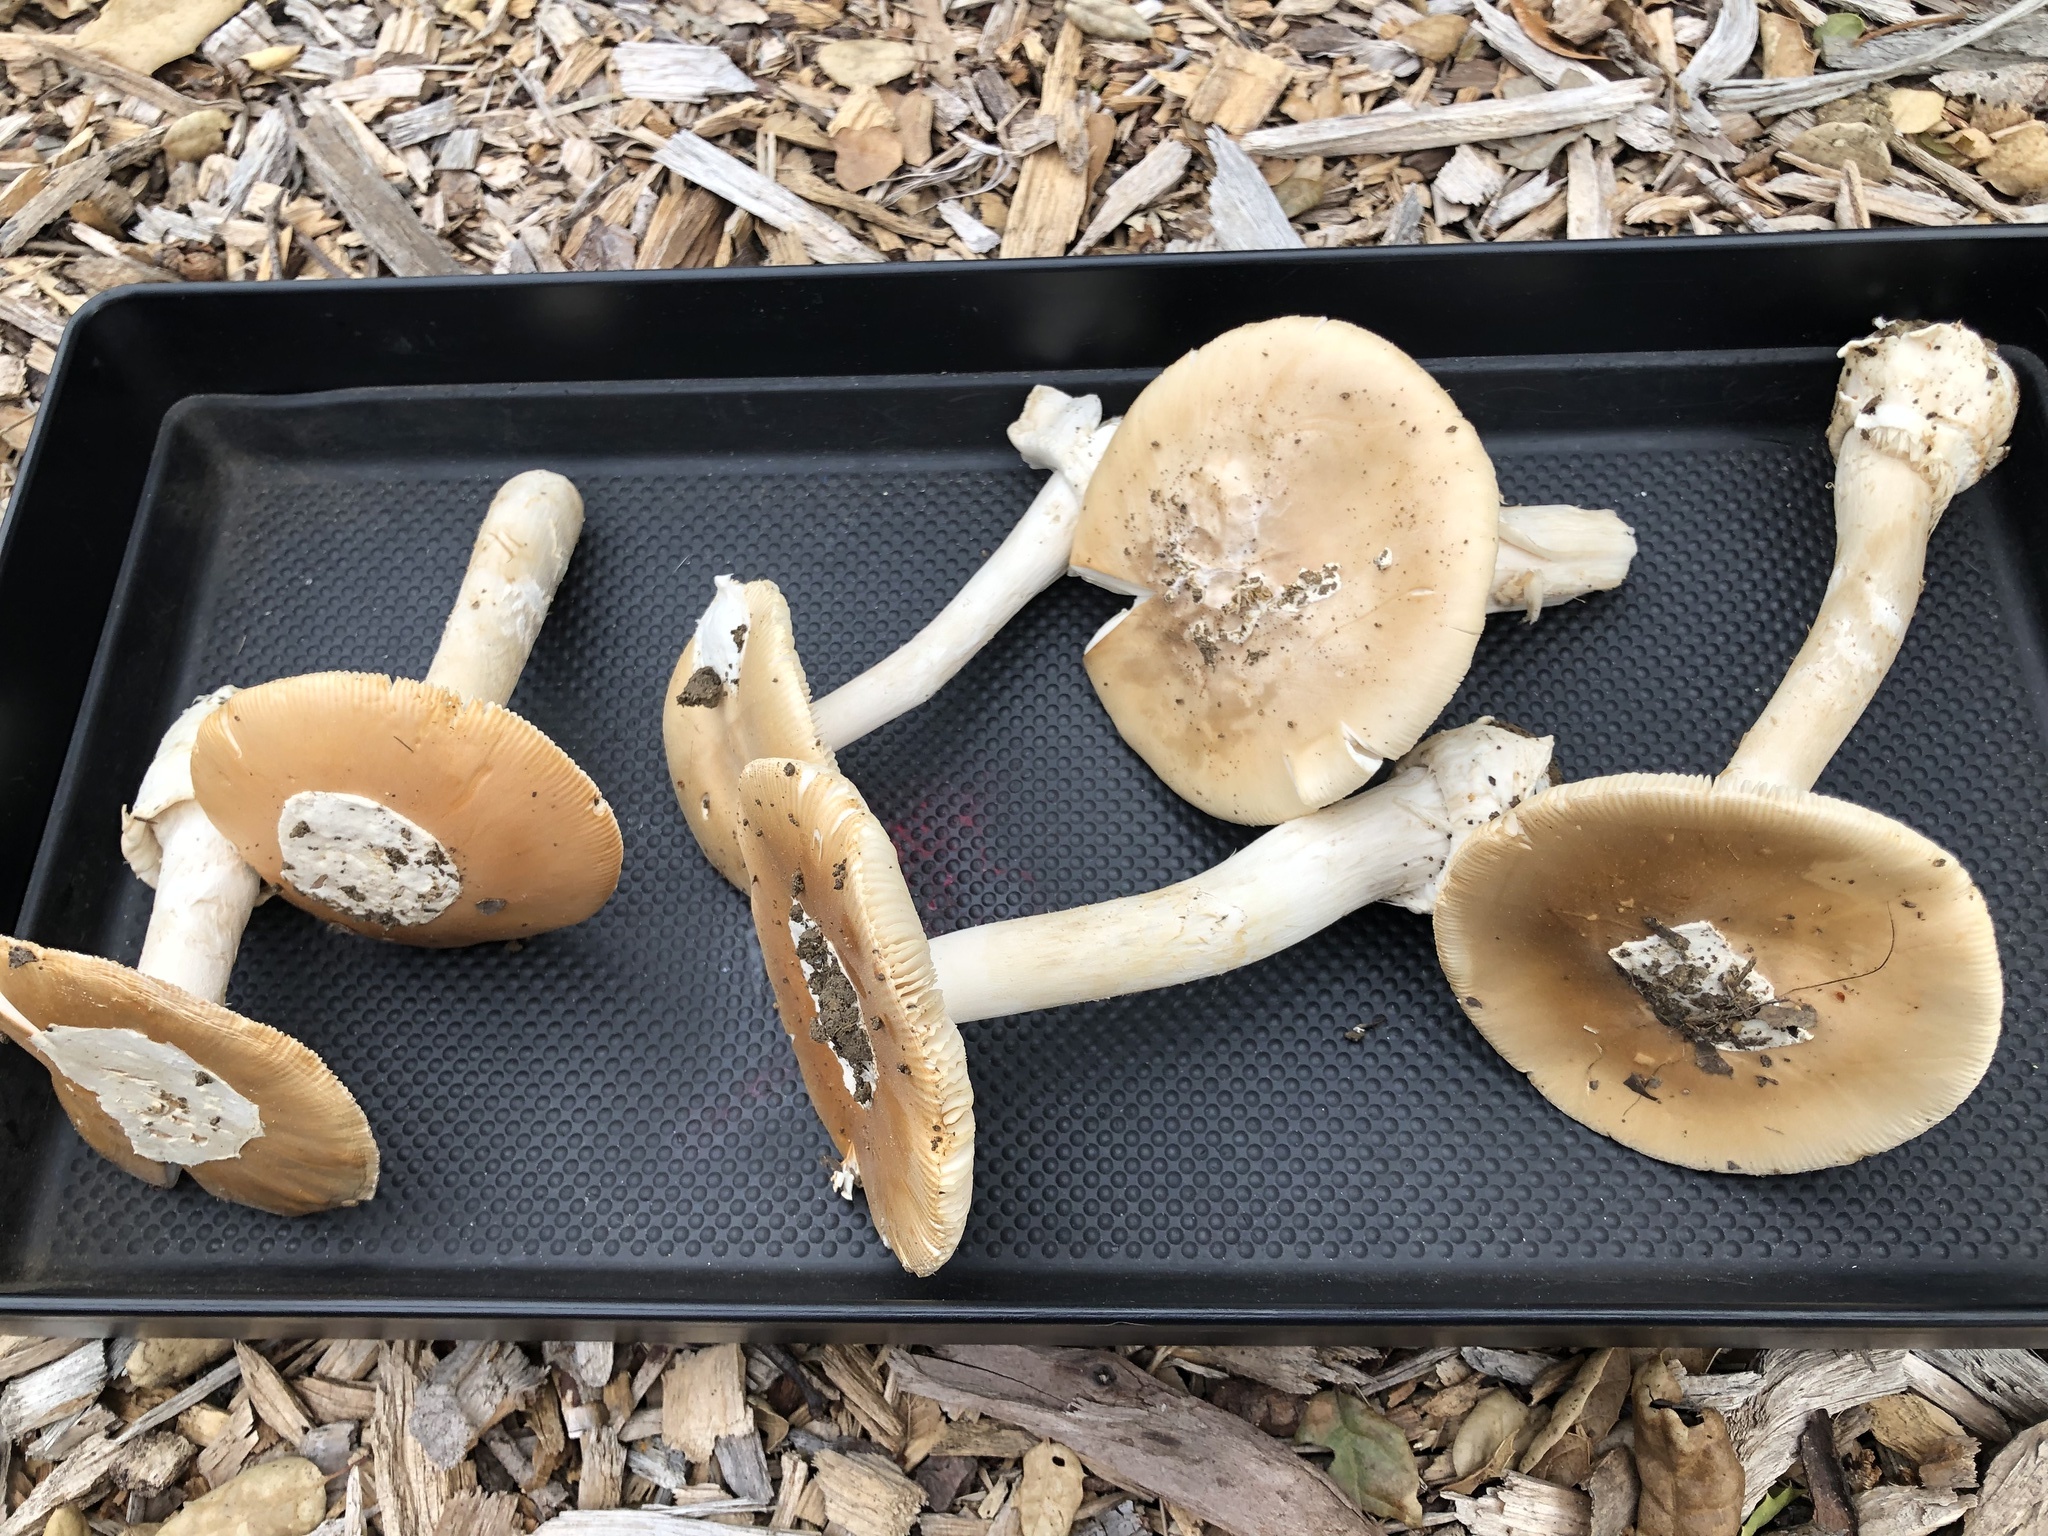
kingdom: Fungi
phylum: Basidiomycota
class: Agaricomycetes
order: Agaricales
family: Amanitaceae
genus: Amanita
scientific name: Amanita velosa
